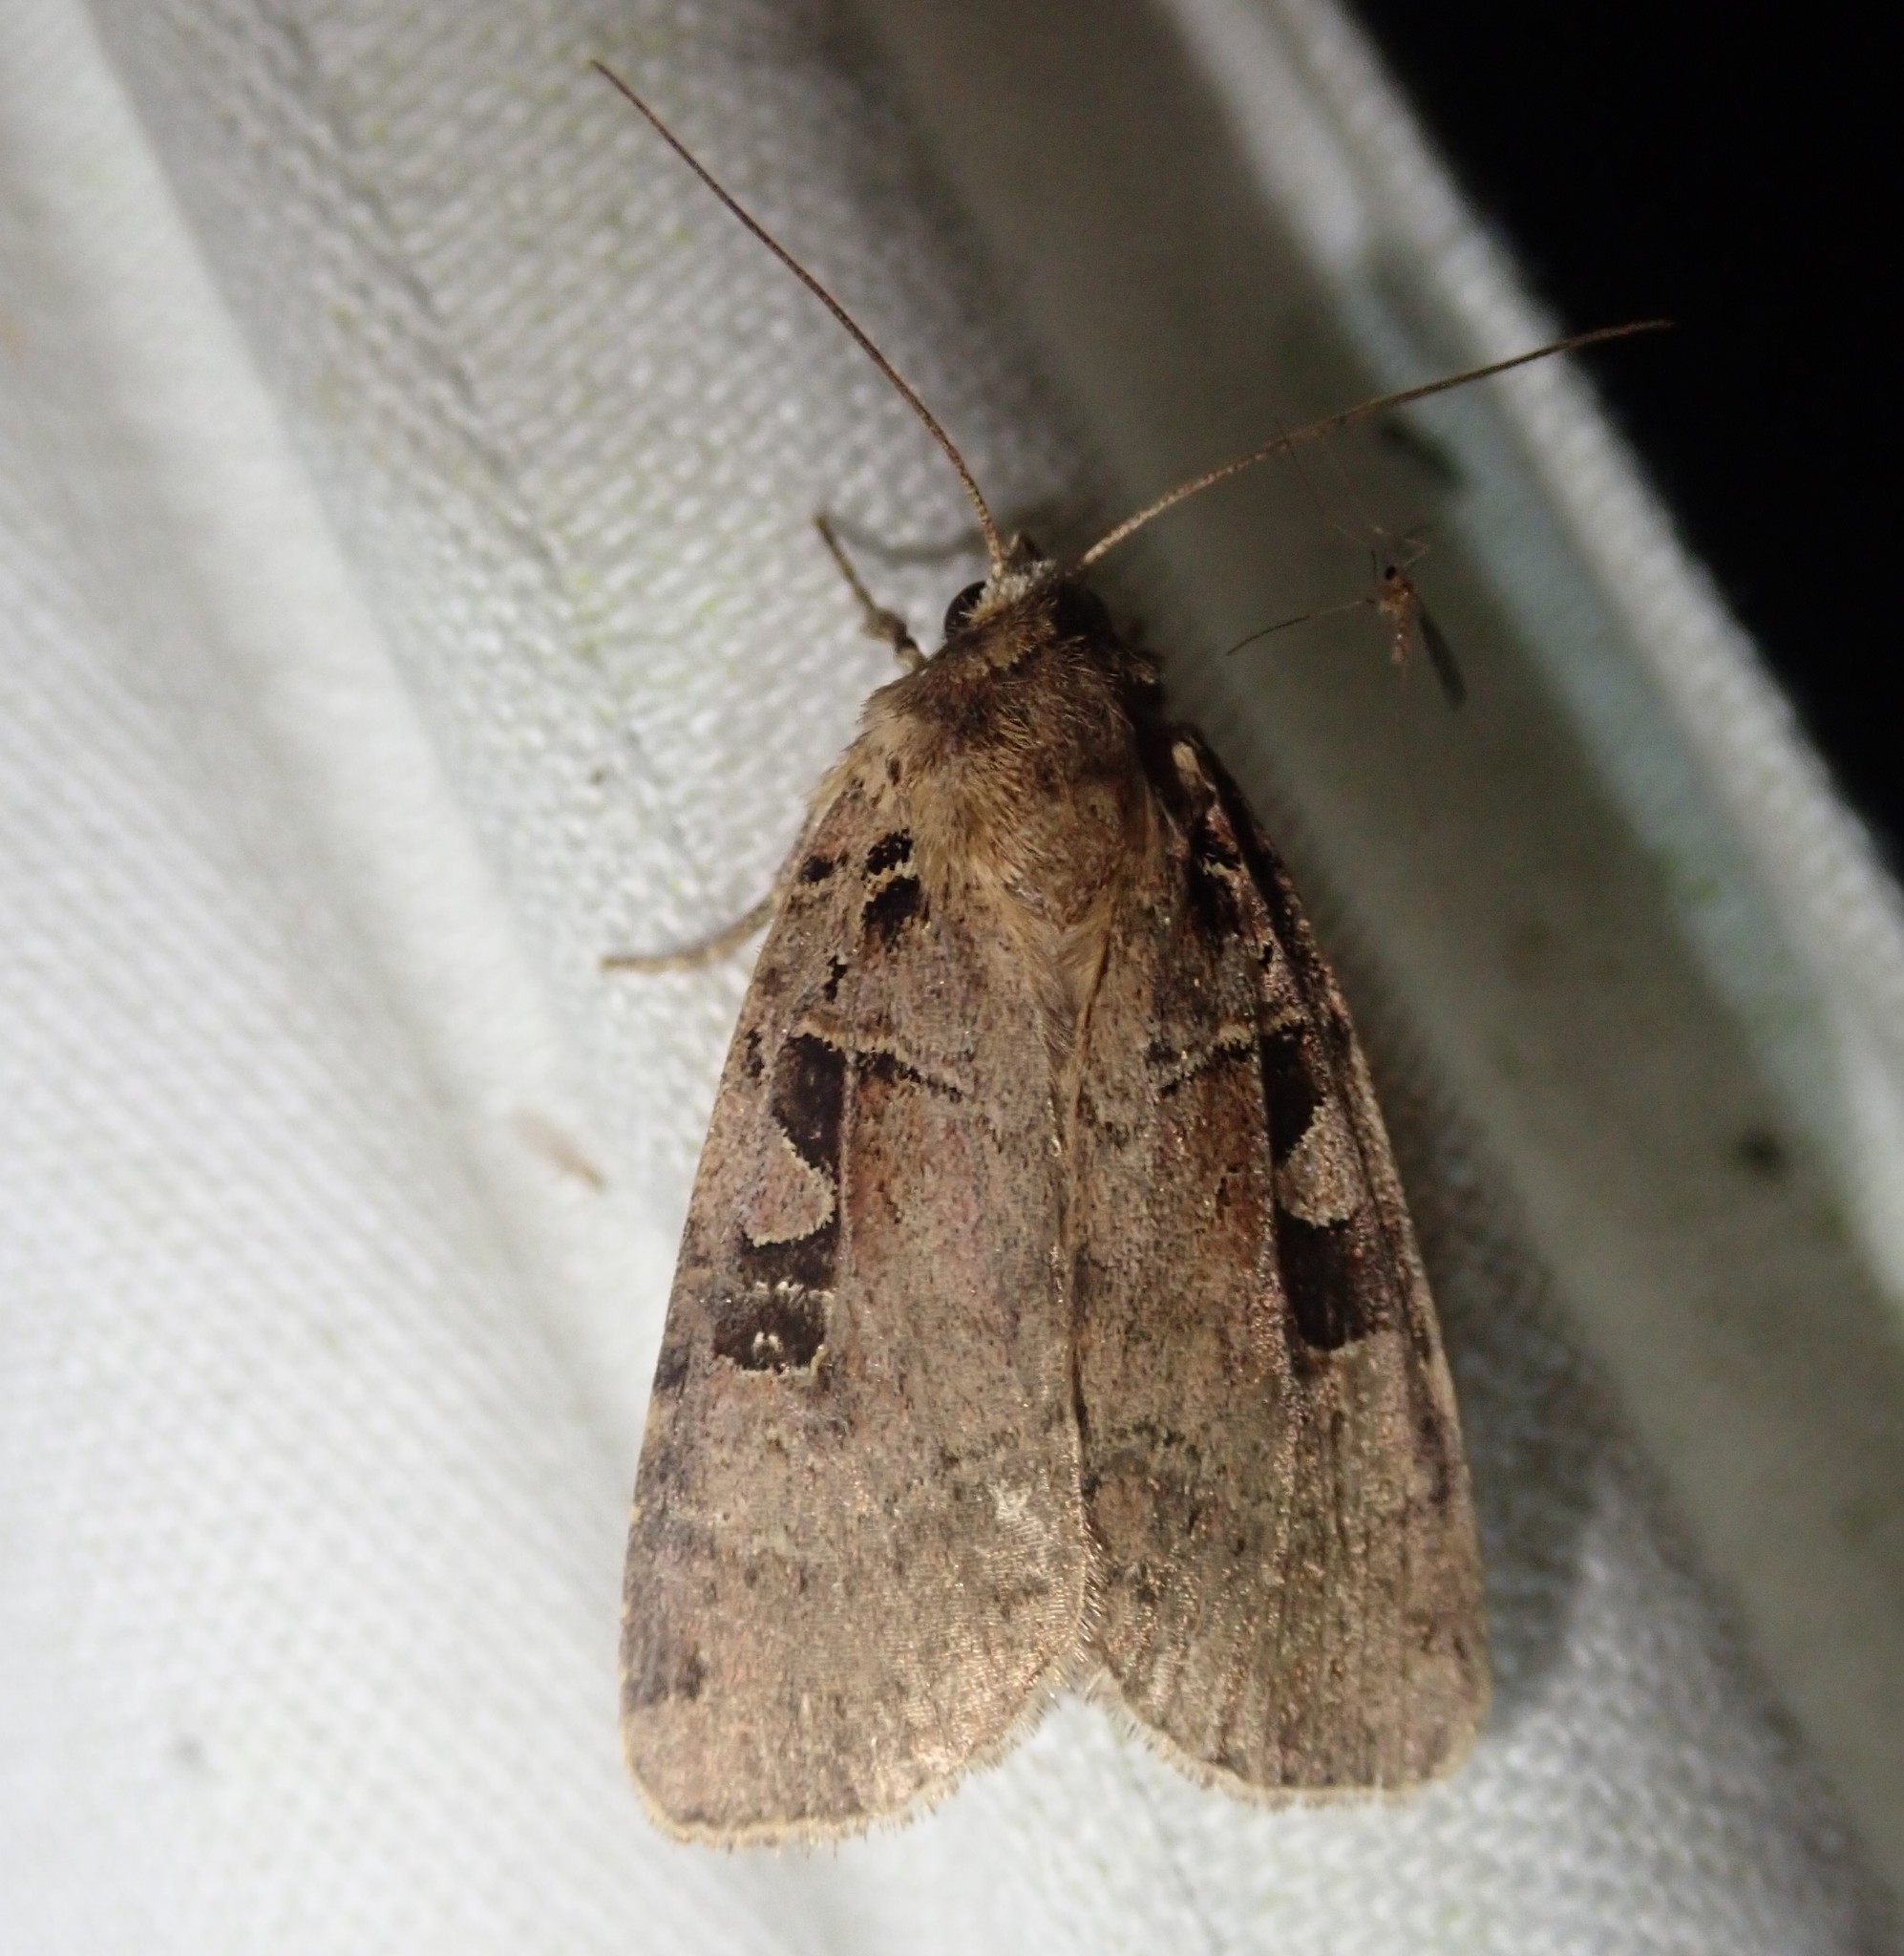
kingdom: Animalia
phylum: Arthropoda
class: Insecta
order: Lepidoptera
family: Noctuidae
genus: Xestia
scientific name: Xestia triangulum
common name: Double square-spot
